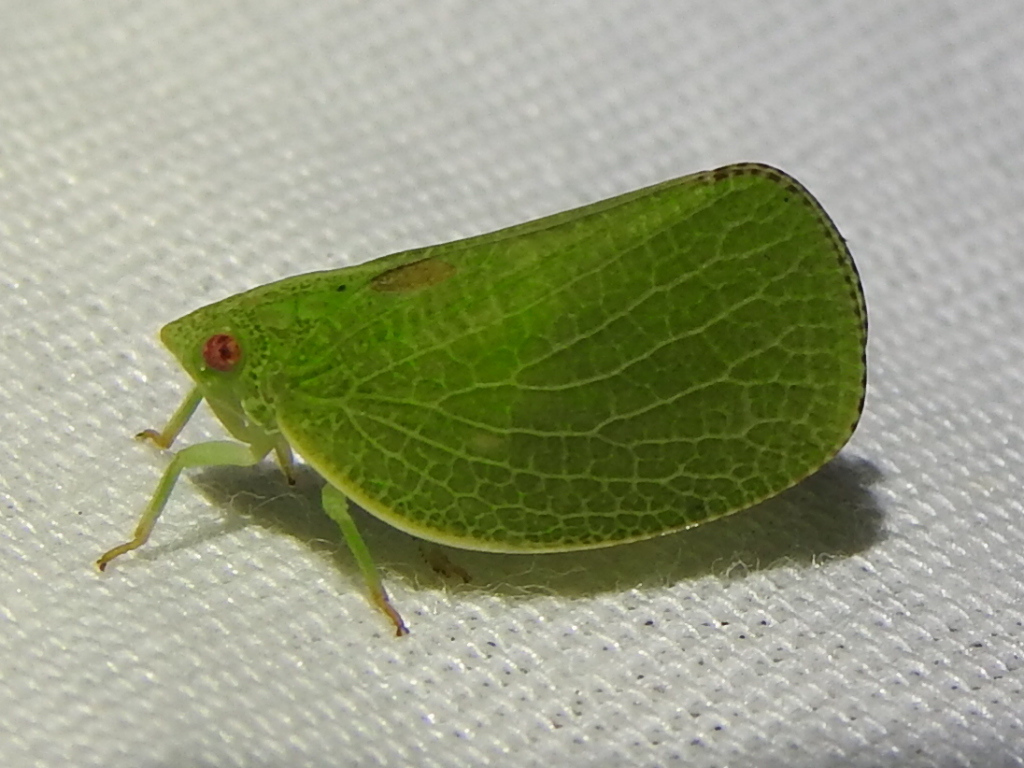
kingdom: Animalia
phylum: Arthropoda
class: Insecta
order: Hemiptera
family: Acanaloniidae
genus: Acanalonia
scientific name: Acanalonia conica
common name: Green cone-headed planthopper
